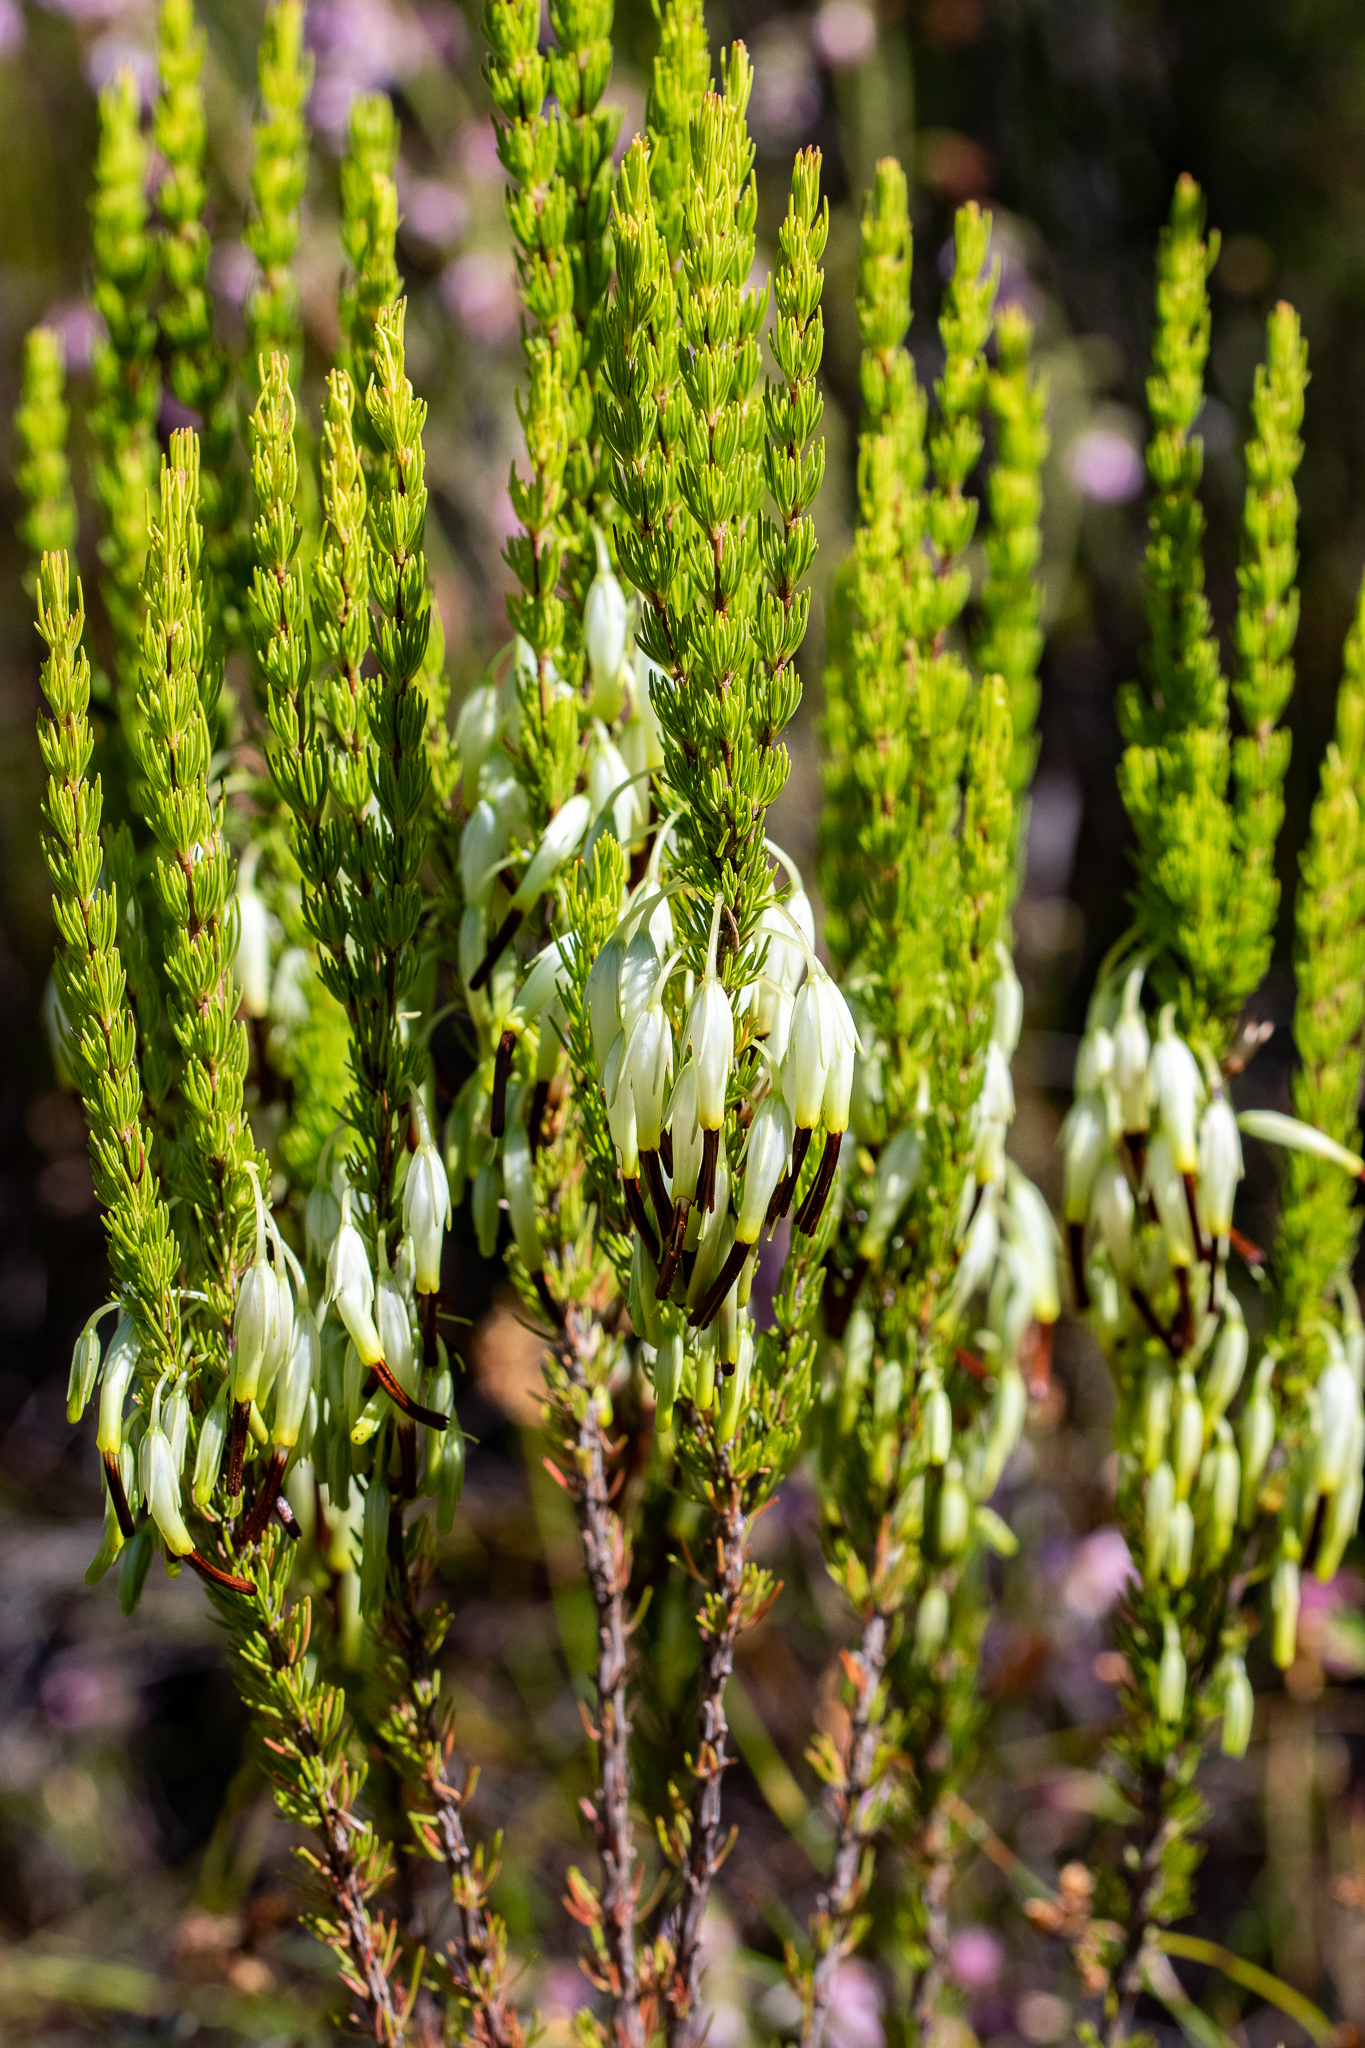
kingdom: Plantae
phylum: Tracheophyta
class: Magnoliopsida
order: Ericales
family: Ericaceae
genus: Erica
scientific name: Erica plukenetii
